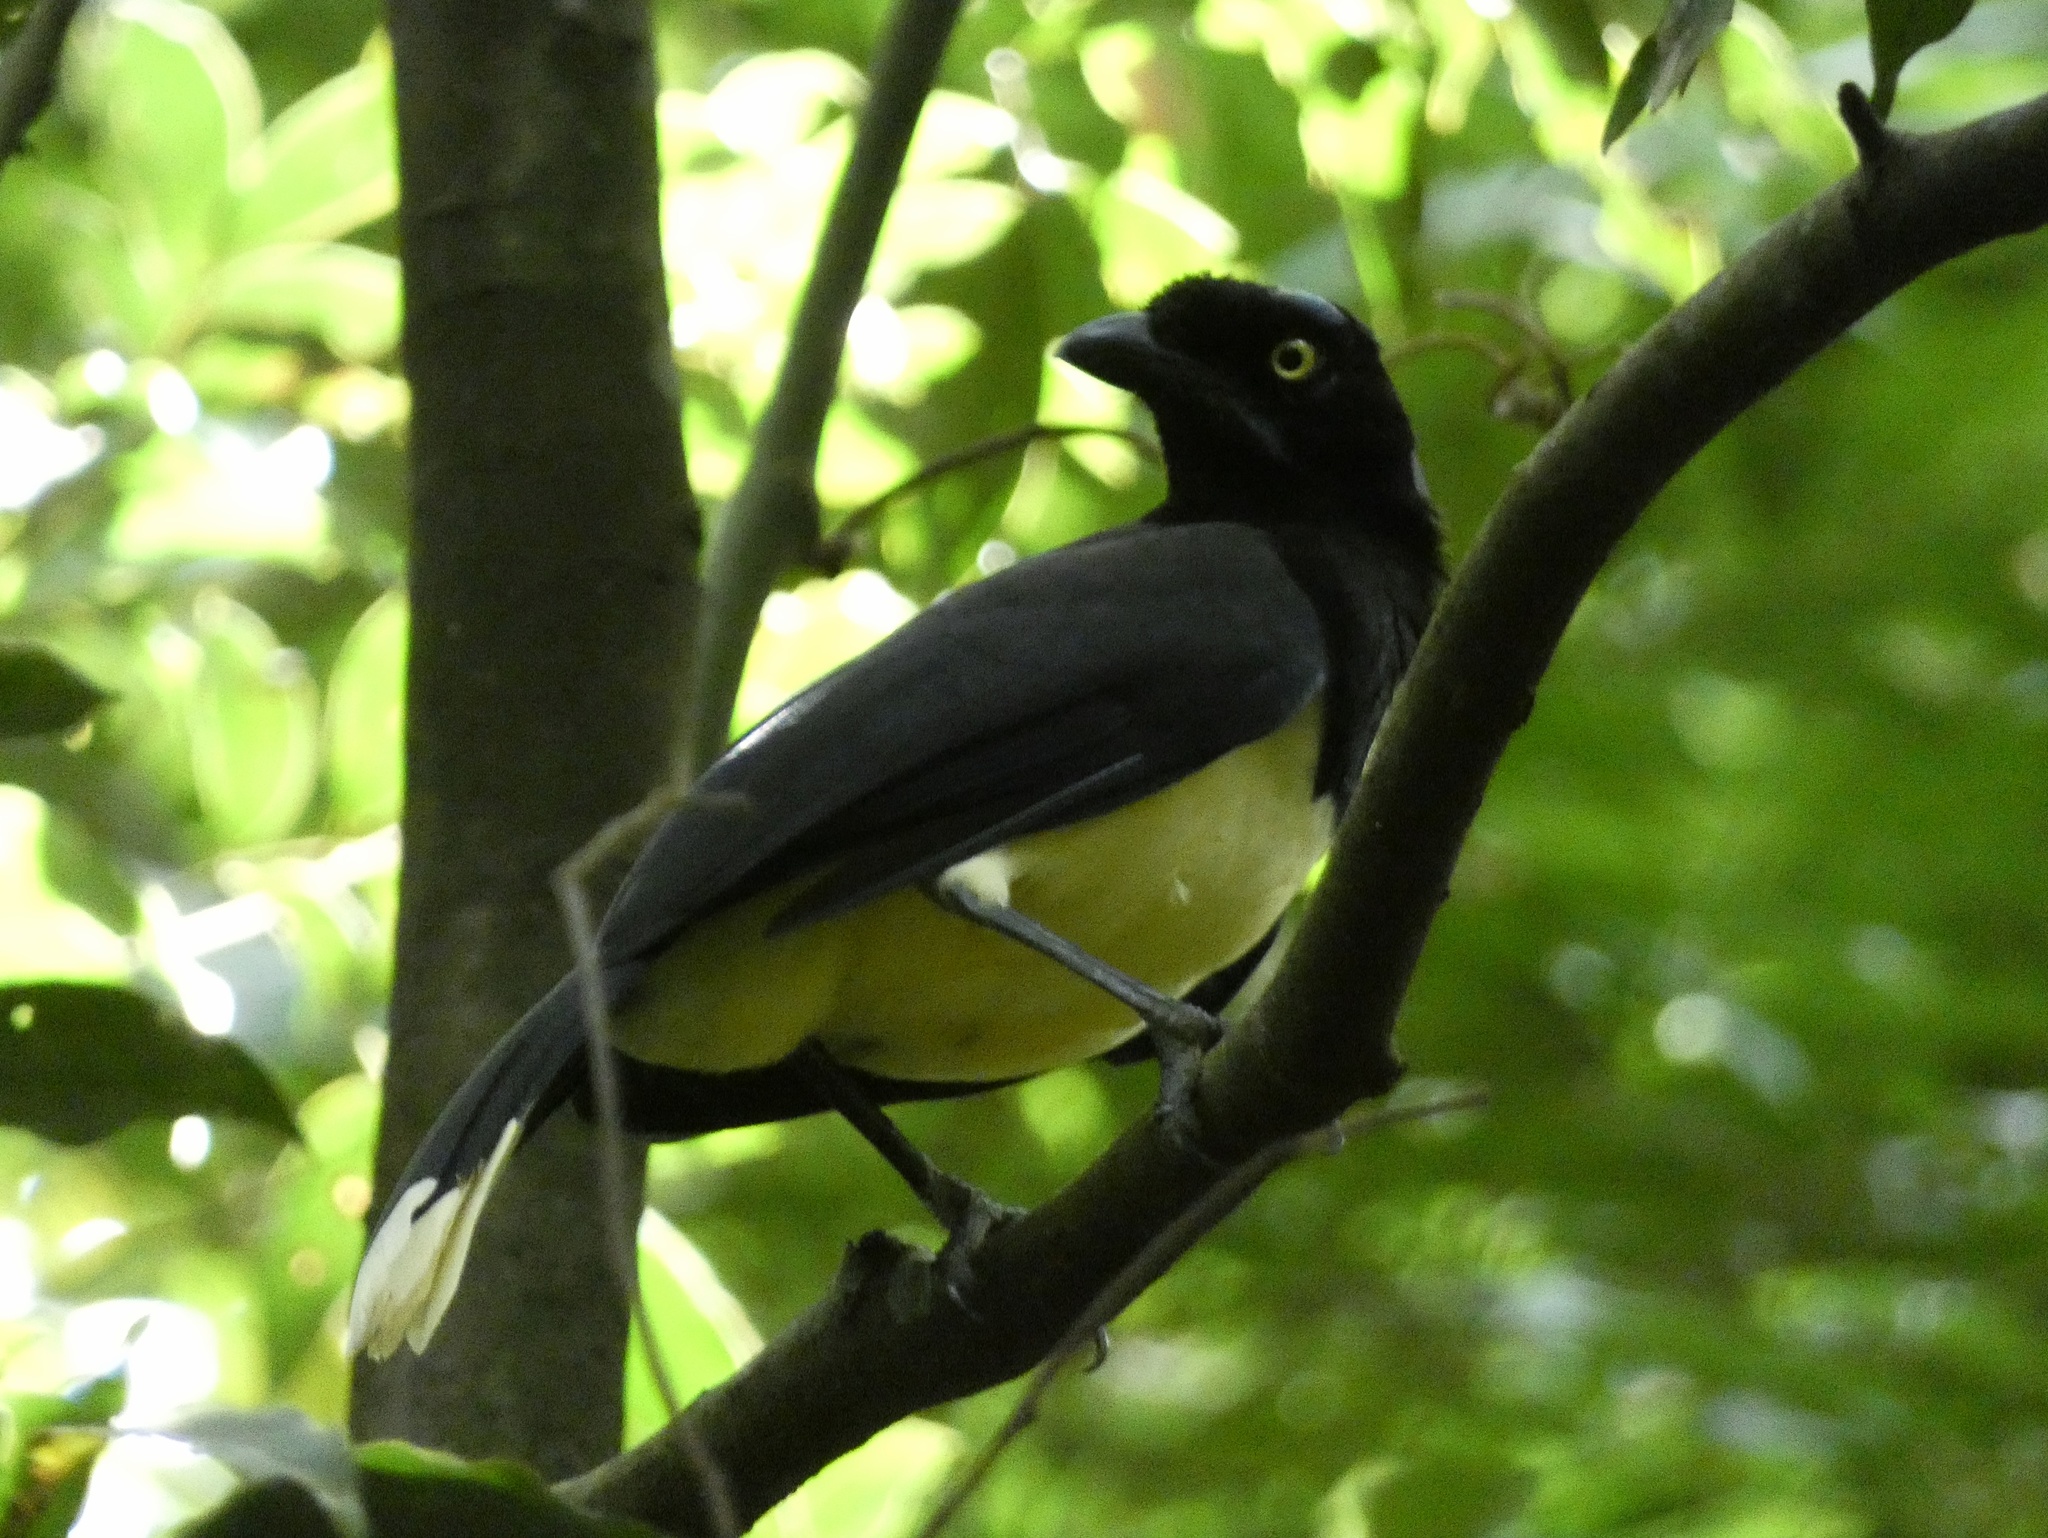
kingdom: Animalia
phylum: Chordata
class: Aves
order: Passeriformes
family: Corvidae
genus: Cyanocorax
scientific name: Cyanocorax affinis
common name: Black-chested jay
